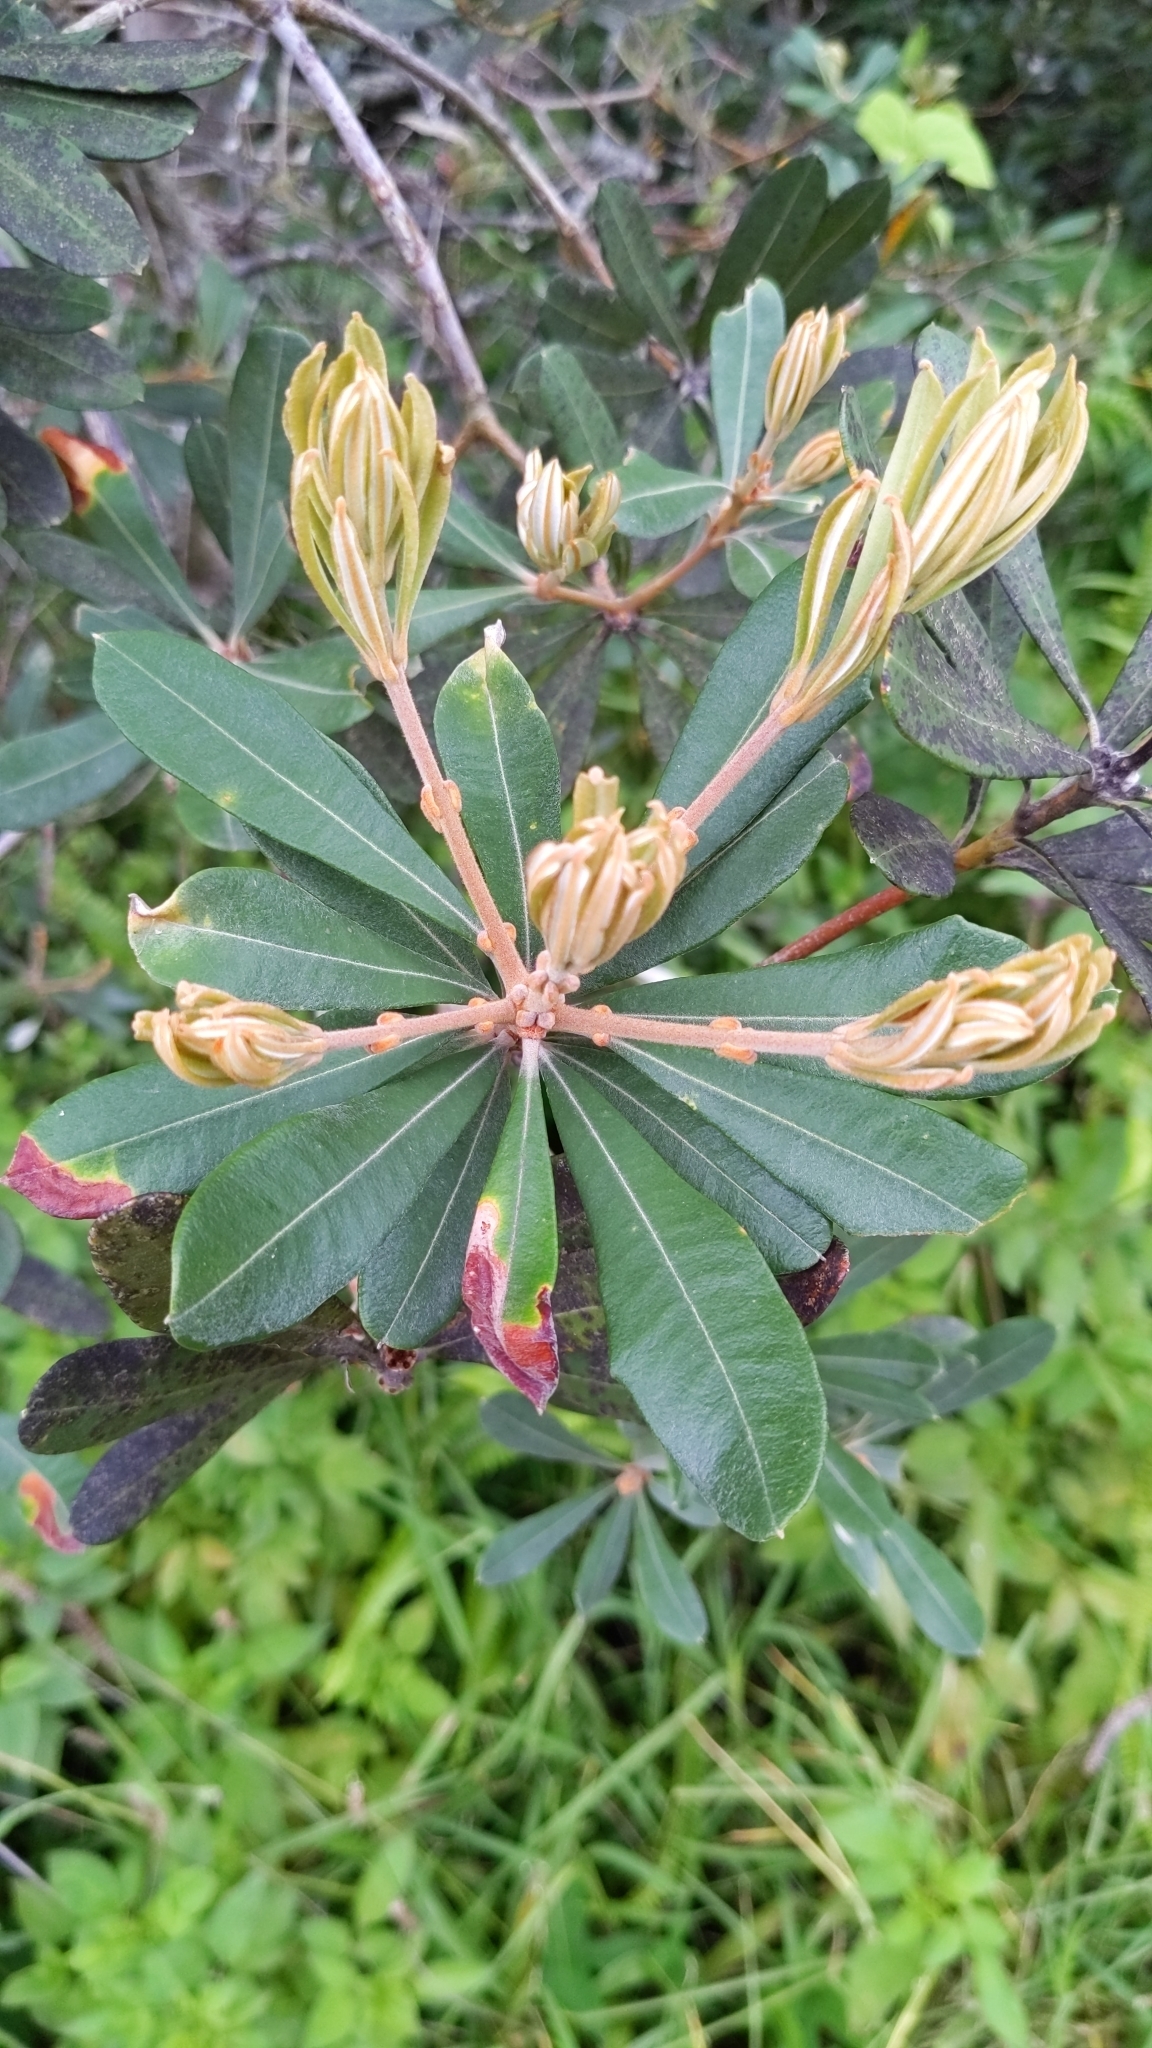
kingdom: Plantae
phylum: Tracheophyta
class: Magnoliopsida
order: Proteales
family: Proteaceae
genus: Banksia
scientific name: Banksia integrifolia
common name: White-honeysuckle
